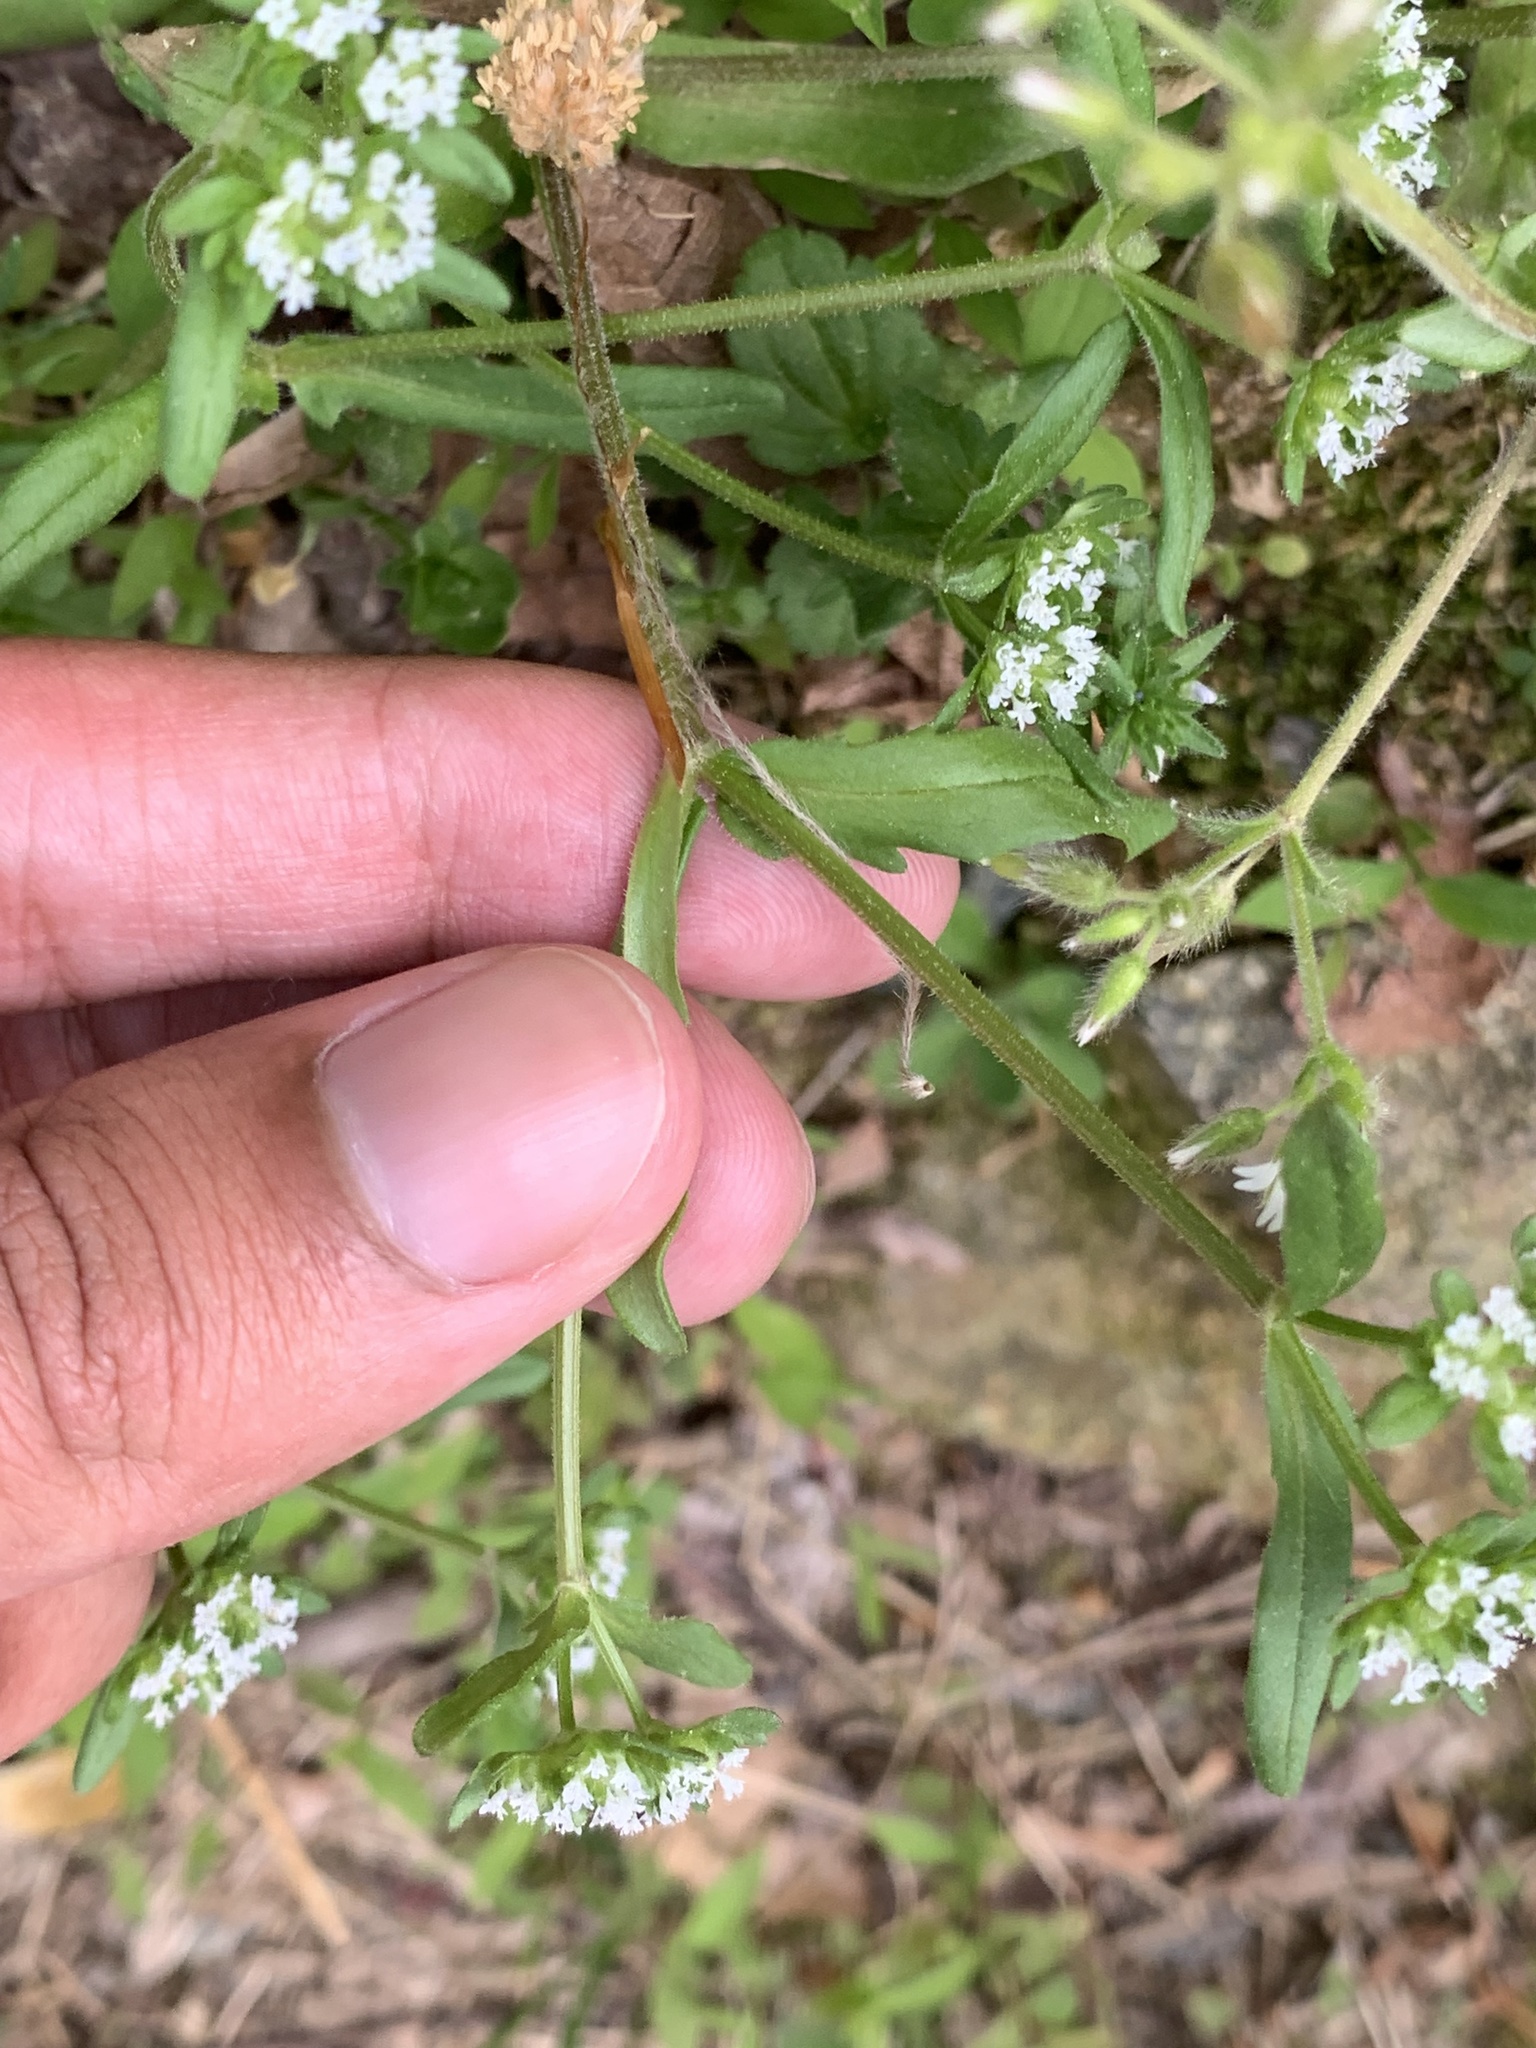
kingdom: Plantae
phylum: Tracheophyta
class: Magnoliopsida
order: Dipsacales
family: Caprifoliaceae
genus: Valerianella
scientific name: Valerianella locusta
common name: Common cornsalad
